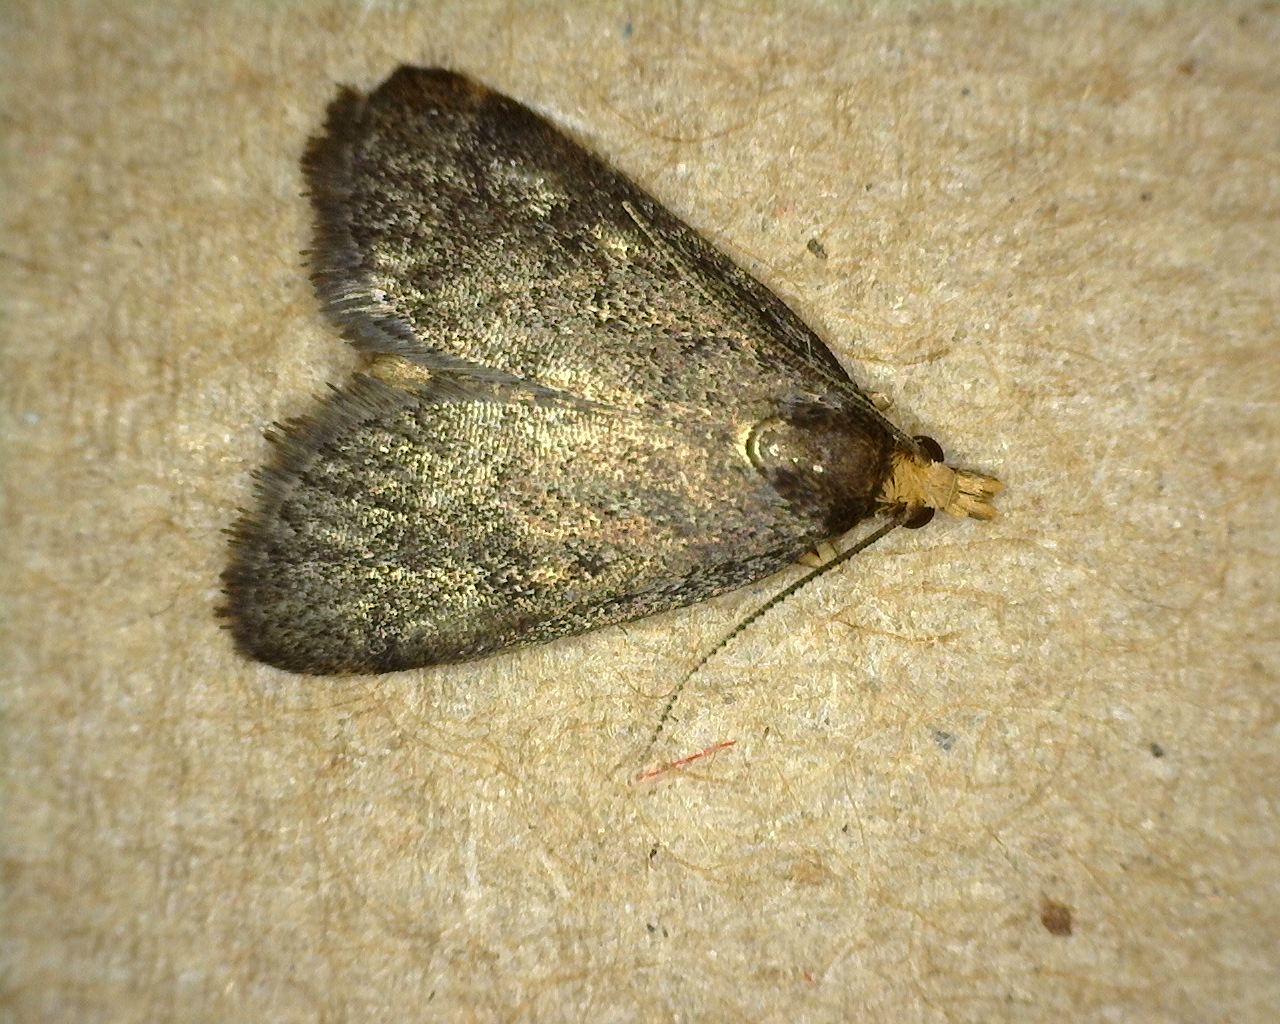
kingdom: Animalia
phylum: Arthropoda
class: Insecta
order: Lepidoptera
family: Crambidae
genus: Pyrausta
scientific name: Pyrausta merrickalis
